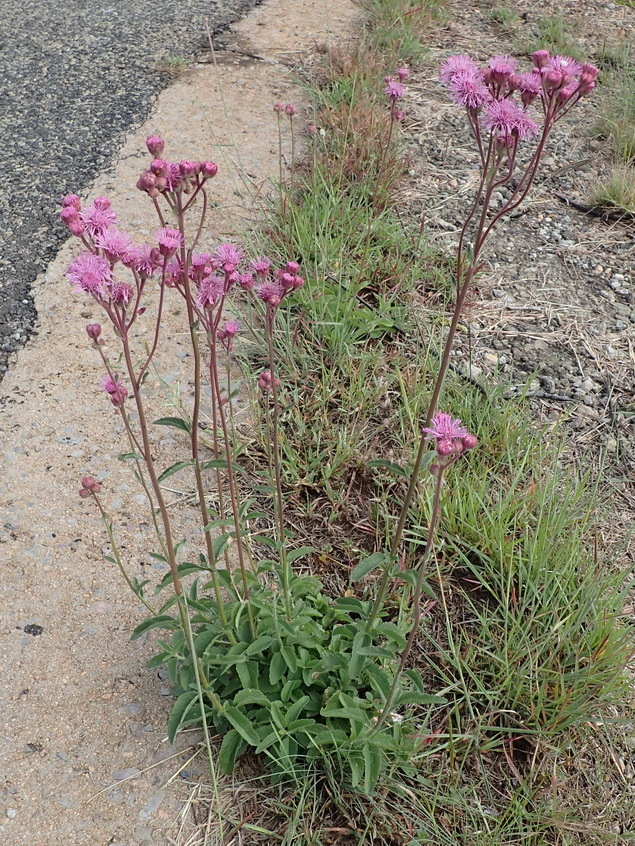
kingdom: Plantae
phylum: Tracheophyta
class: Magnoliopsida
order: Asterales
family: Asteraceae
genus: Campuloclinium
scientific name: Campuloclinium macrocephalum
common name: Pompomweed
